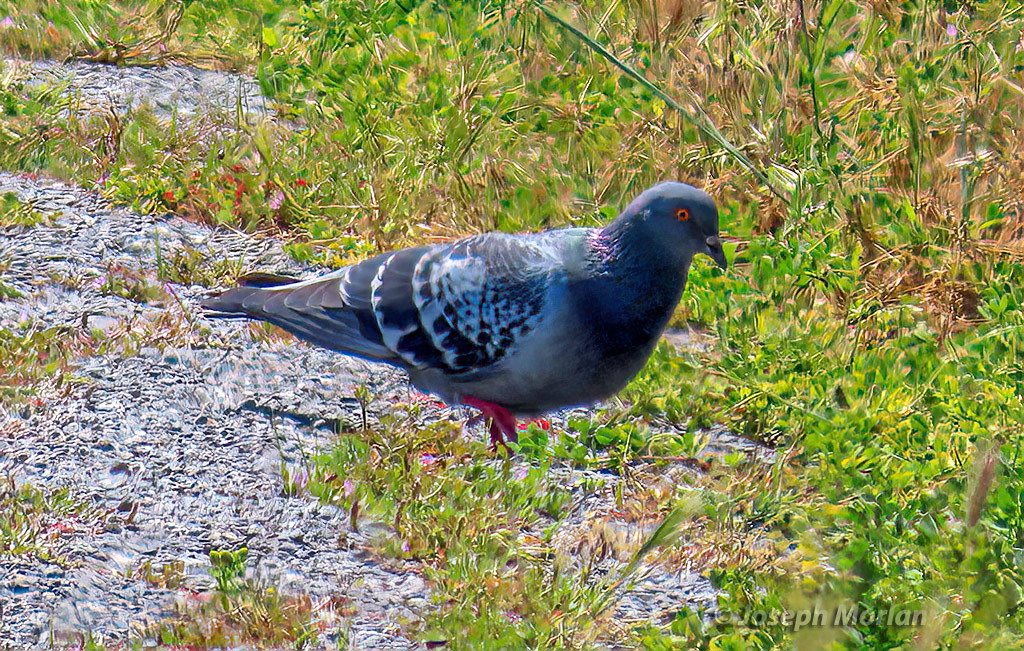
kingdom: Animalia
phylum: Chordata
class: Aves
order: Columbiformes
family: Columbidae
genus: Columba
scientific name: Columba livia
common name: Rock pigeon
